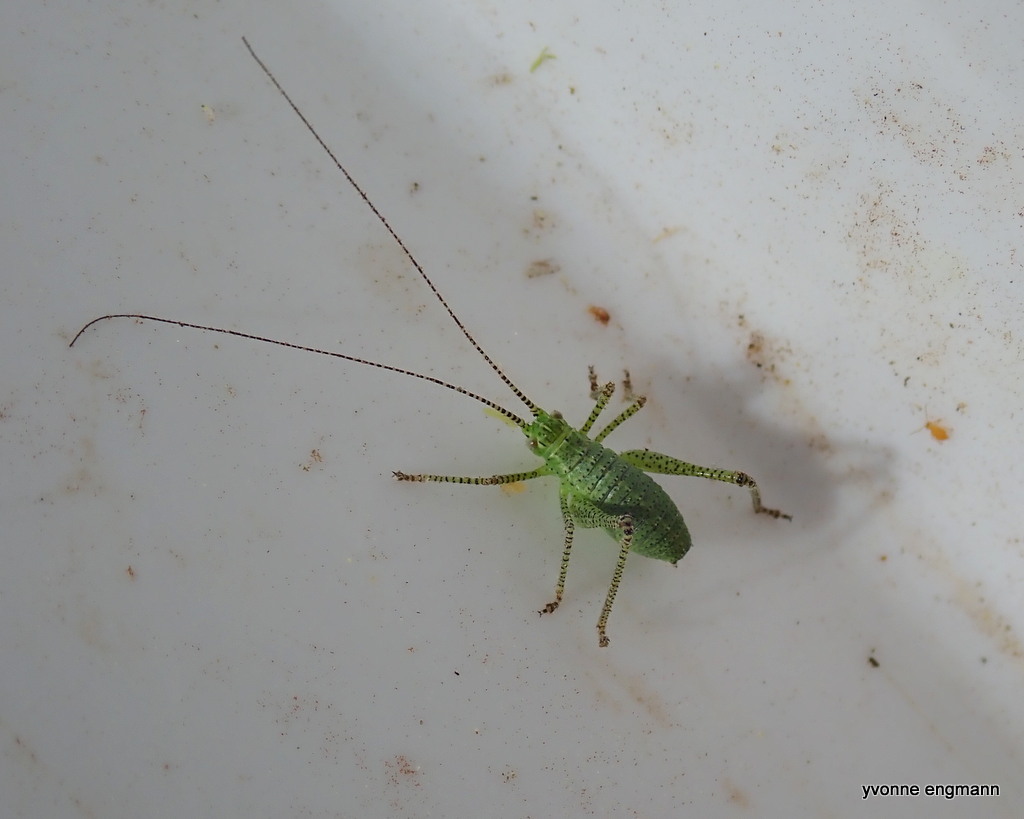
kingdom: Animalia
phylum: Arthropoda
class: Insecta
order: Orthoptera
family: Tettigoniidae
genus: Leptophyes
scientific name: Leptophyes punctatissima
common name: Speckled bush-cricket
